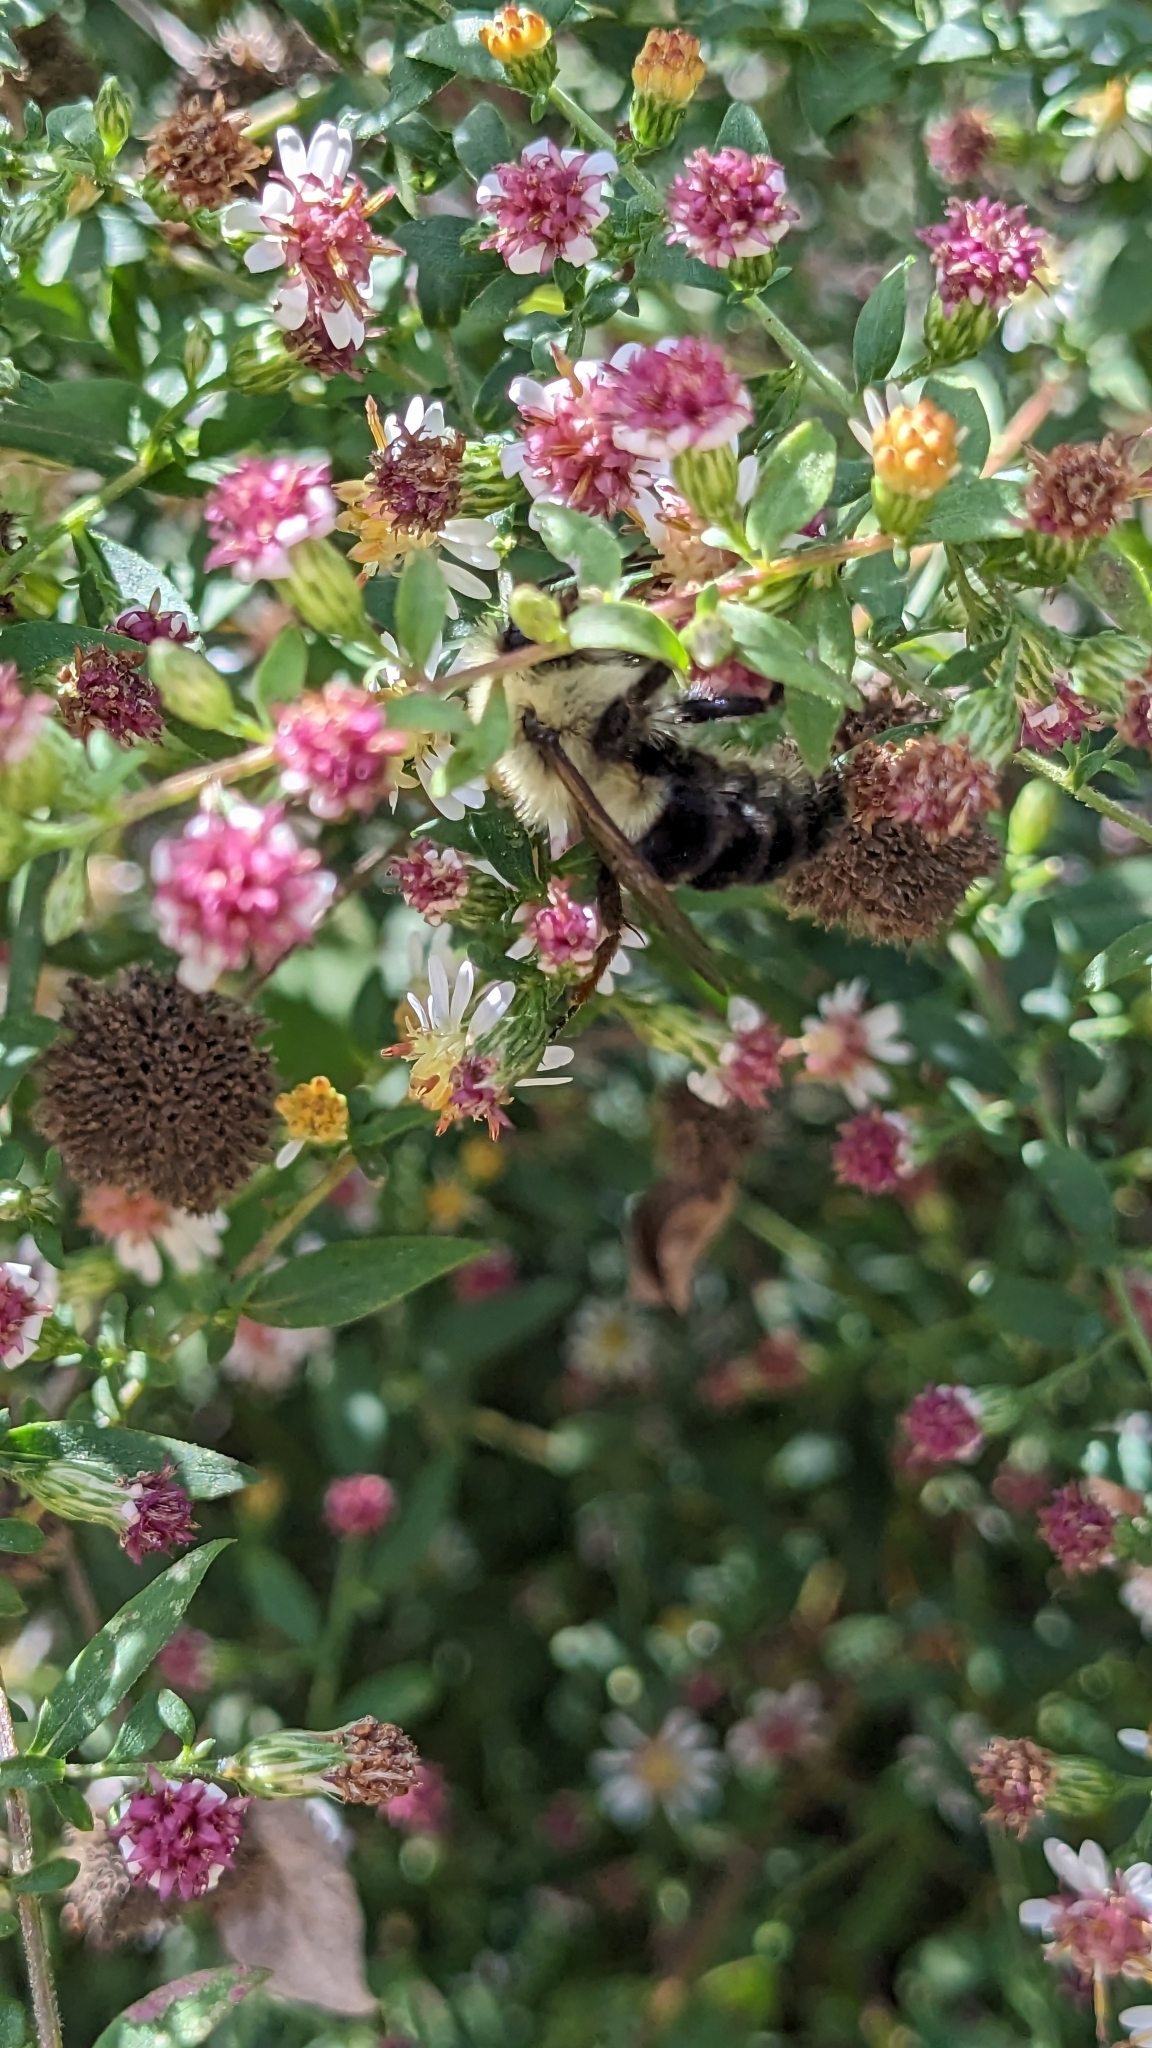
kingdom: Animalia
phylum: Arthropoda
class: Insecta
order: Hymenoptera
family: Apidae
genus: Bombus
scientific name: Bombus impatiens
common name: Common eastern bumble bee
